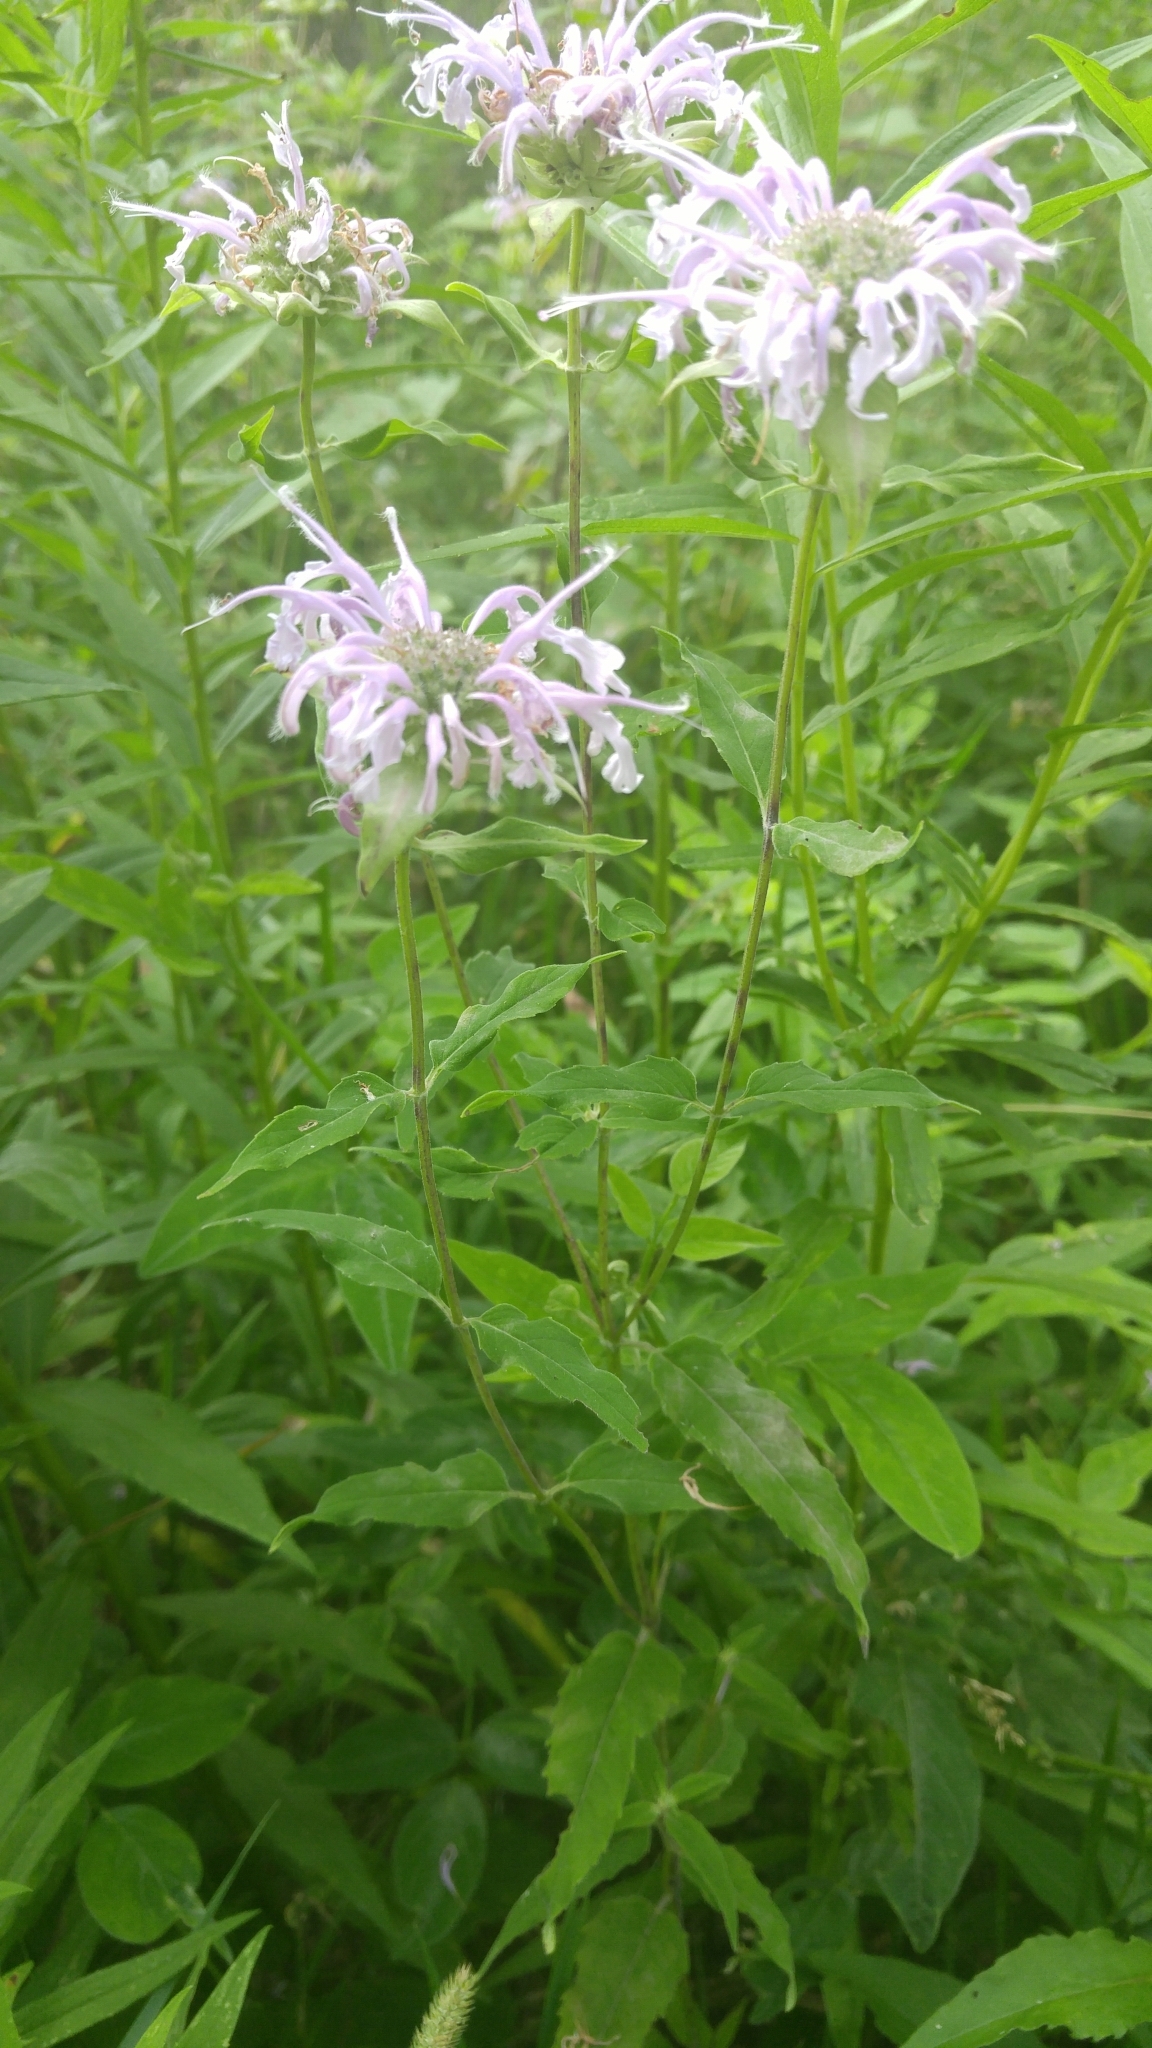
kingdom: Plantae
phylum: Tracheophyta
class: Magnoliopsida
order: Lamiales
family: Lamiaceae
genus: Monarda
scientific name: Monarda fistulosa
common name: Purple beebalm
